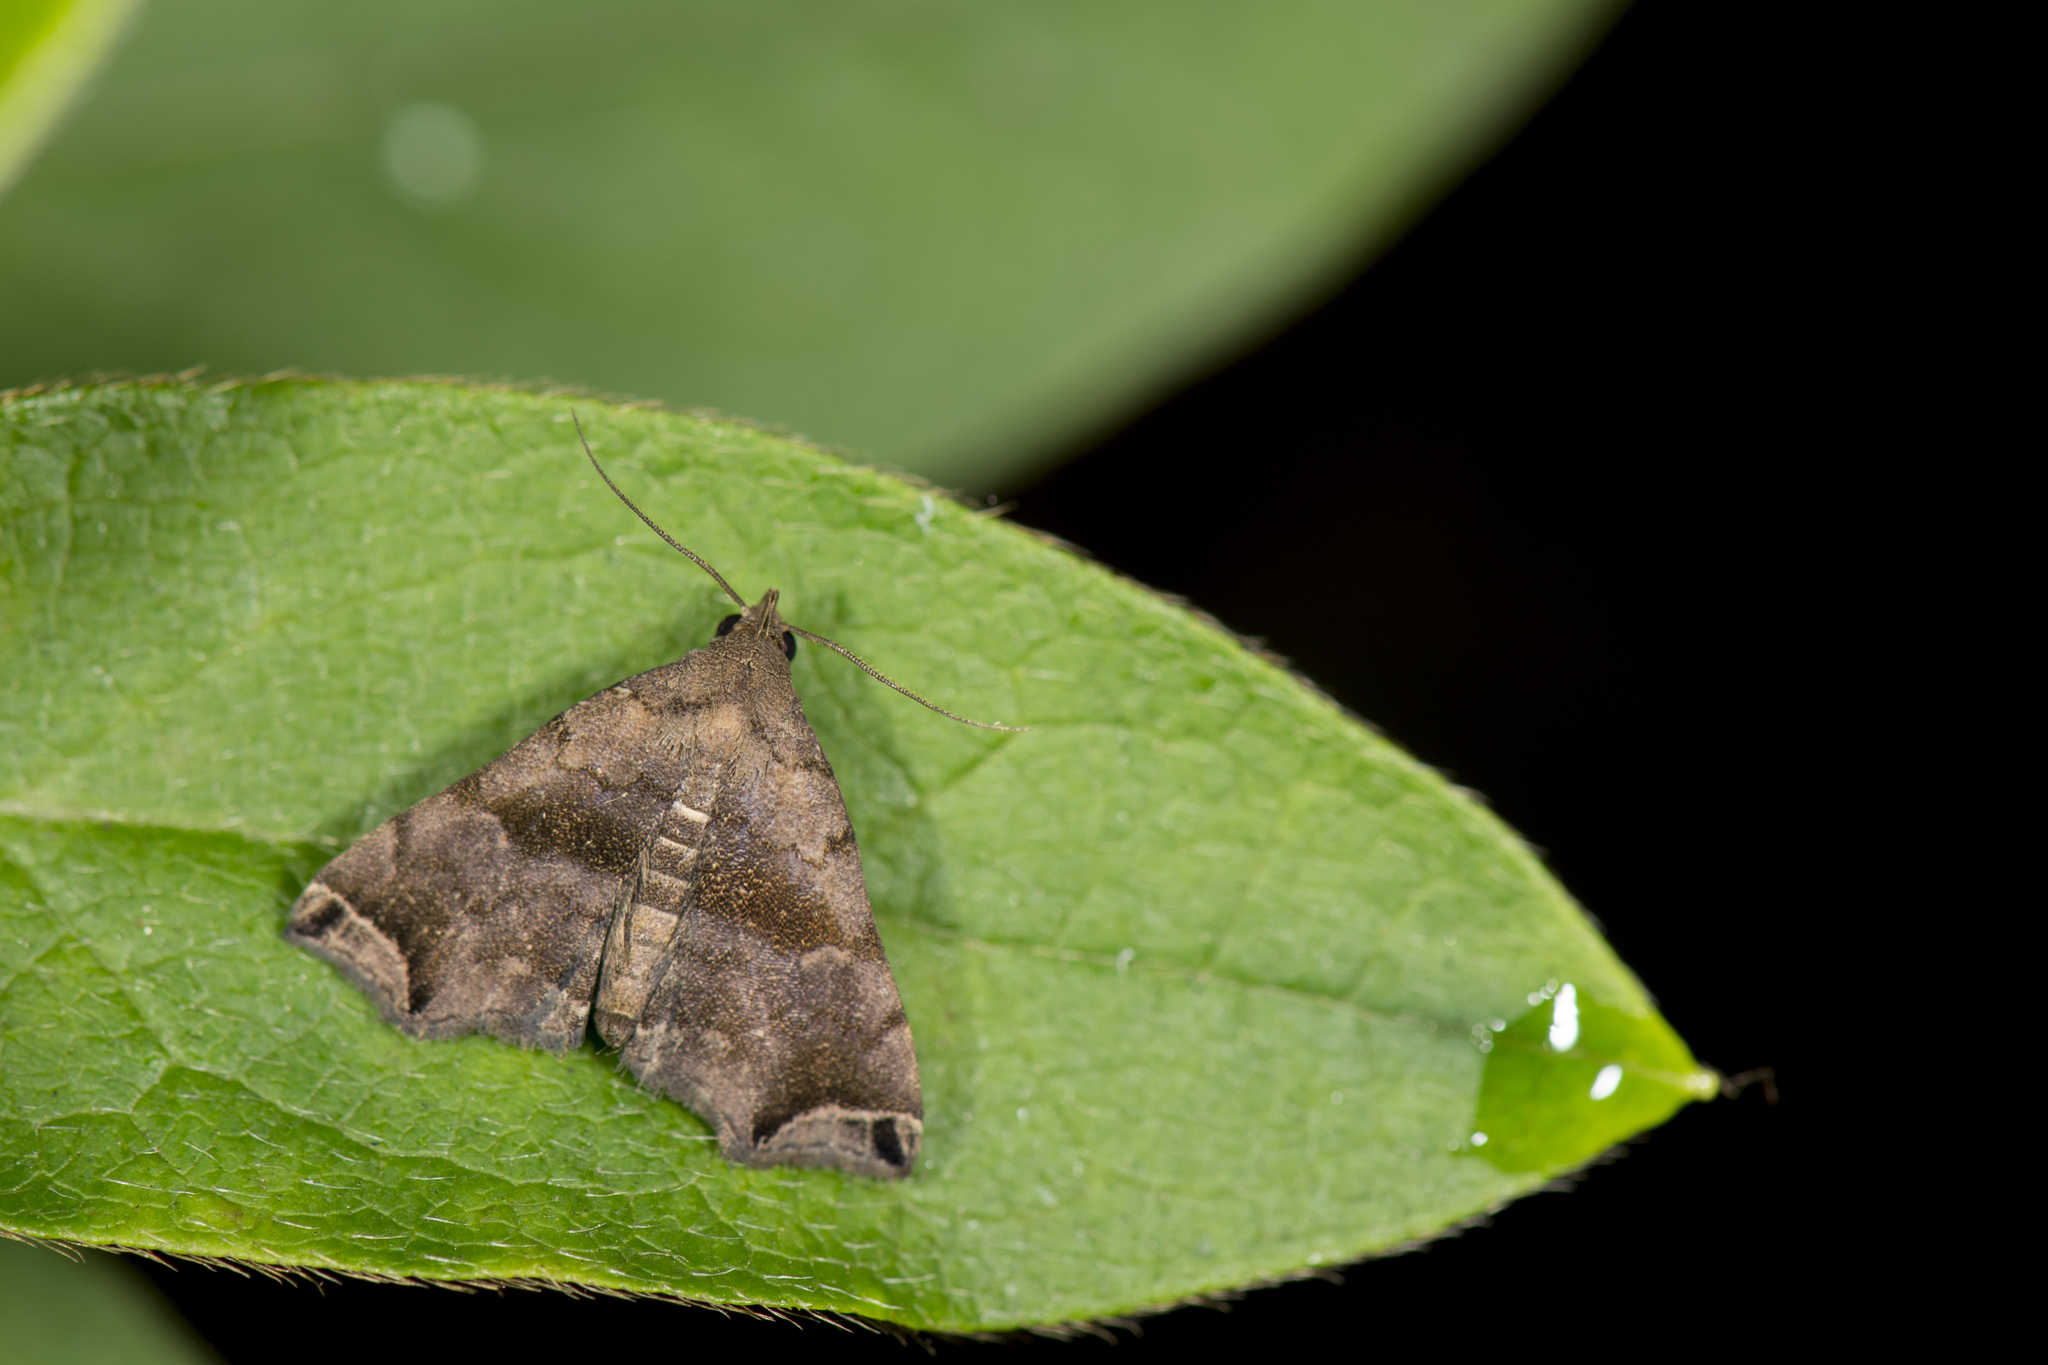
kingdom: Animalia
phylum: Arthropoda
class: Insecta
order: Lepidoptera
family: Erebidae
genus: Polypogon
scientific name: Polypogon biasalis
